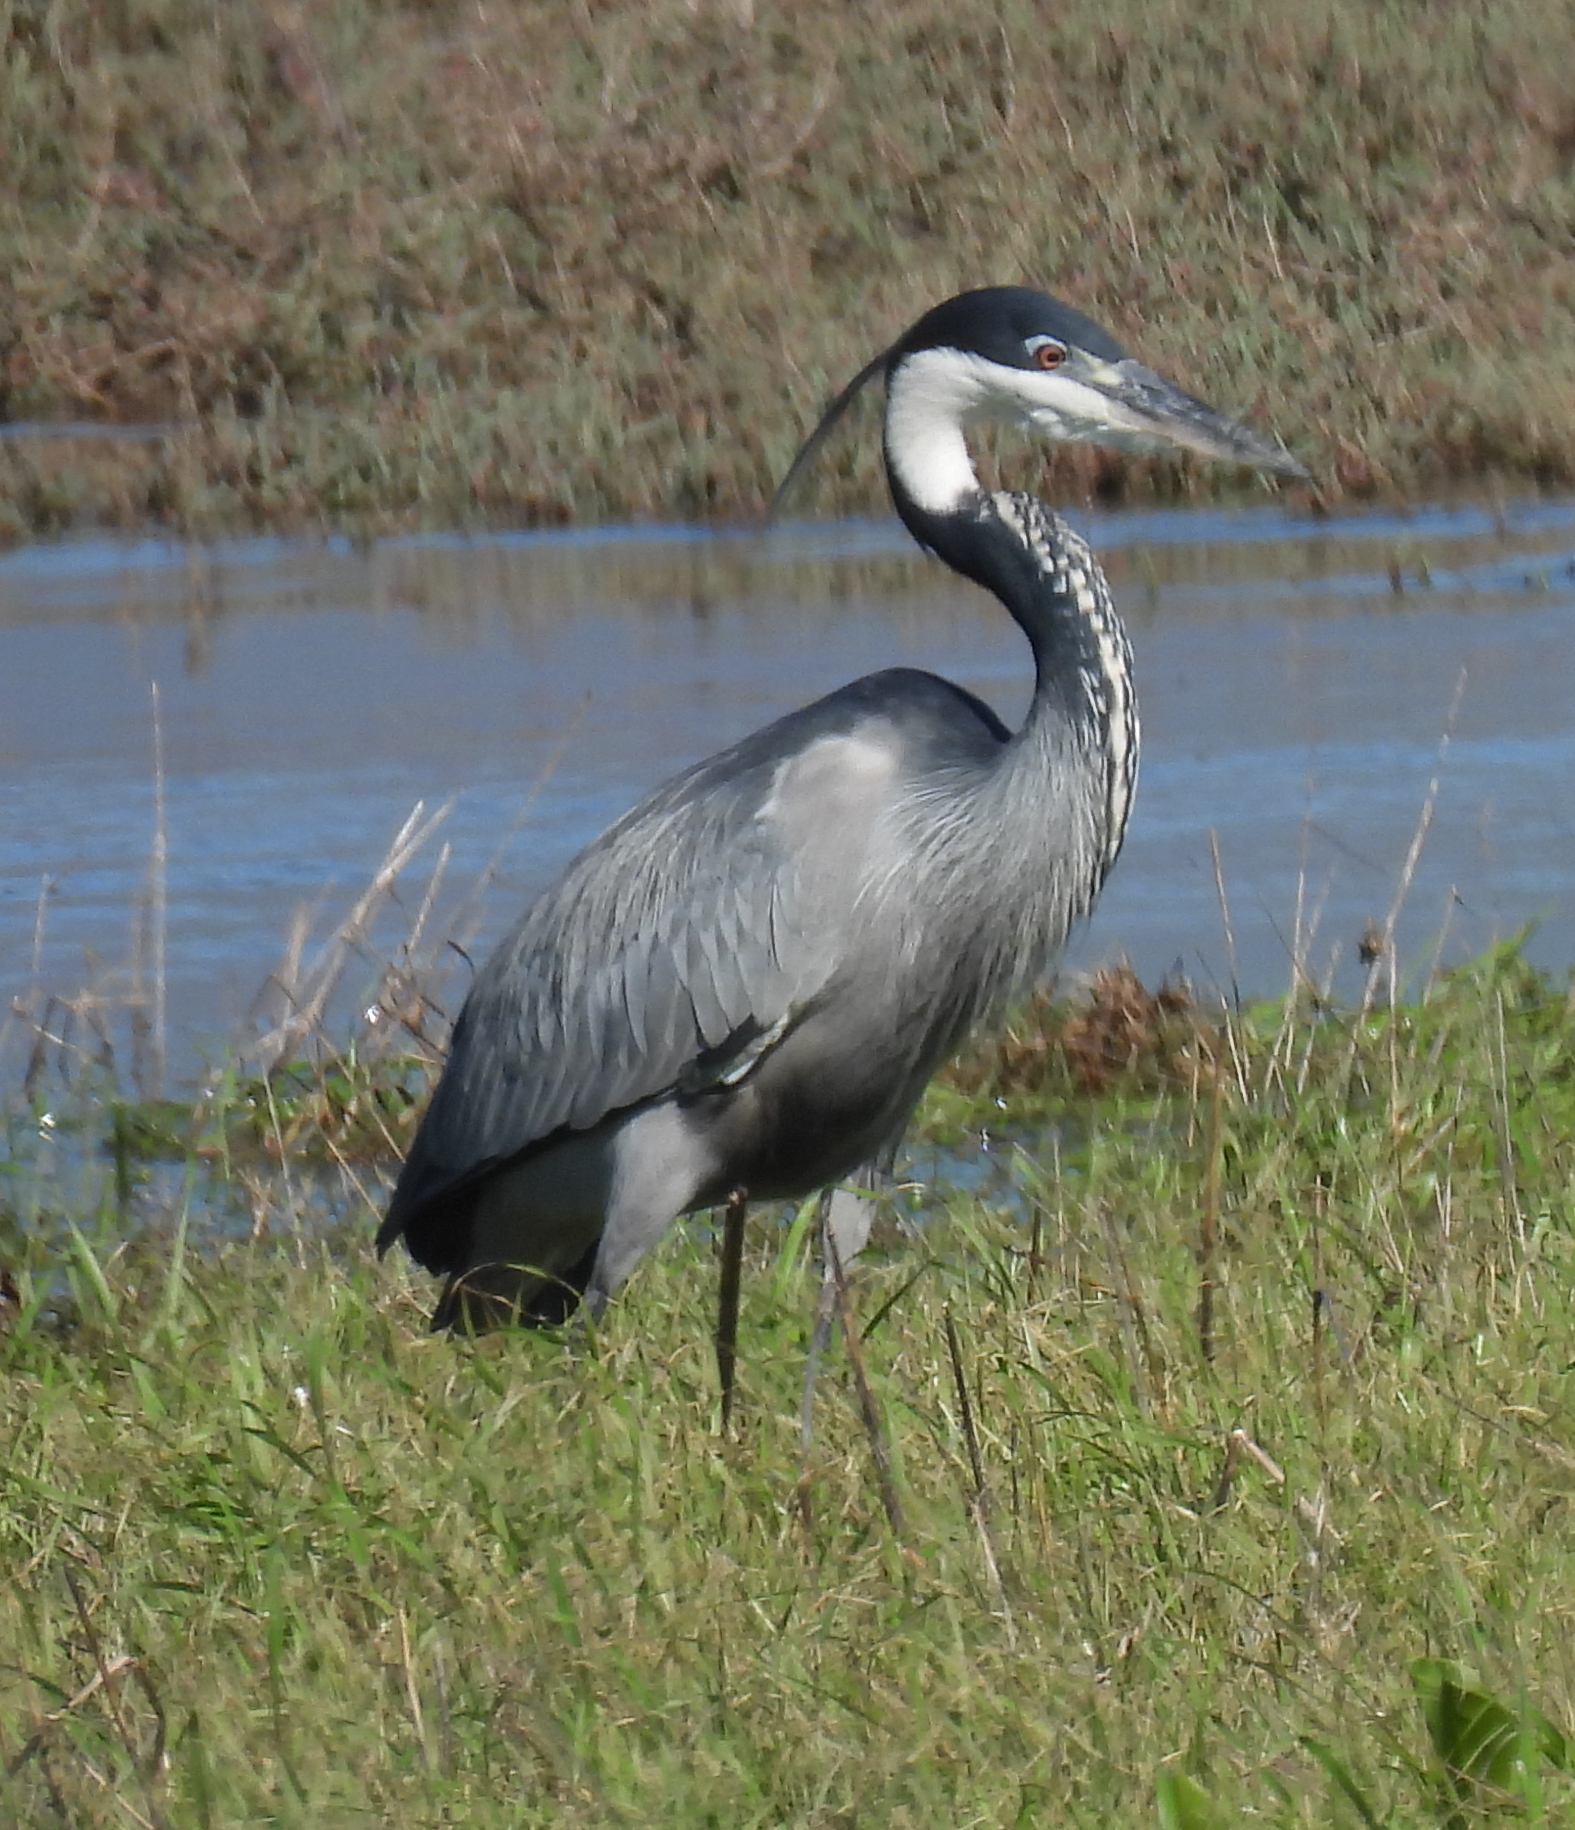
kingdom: Animalia
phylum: Chordata
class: Aves
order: Pelecaniformes
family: Ardeidae
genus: Ardea
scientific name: Ardea melanocephala
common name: Black-headed heron
